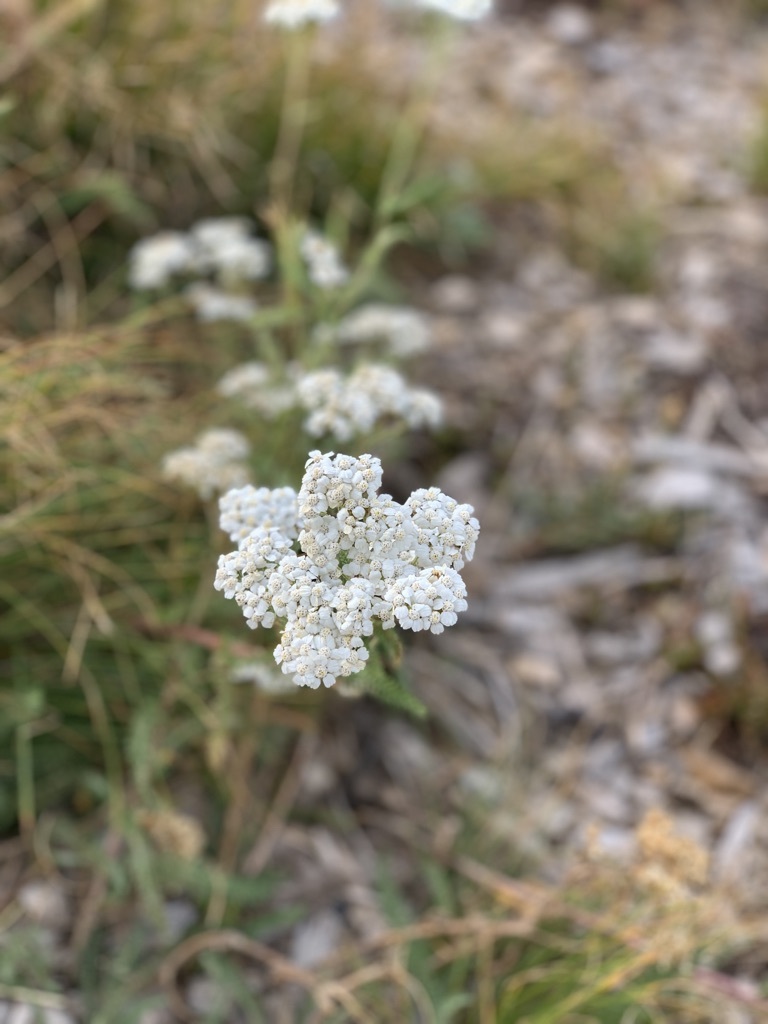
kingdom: Plantae
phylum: Tracheophyta
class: Magnoliopsida
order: Asterales
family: Asteraceae
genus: Achillea
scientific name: Achillea millefolium
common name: Yarrow
